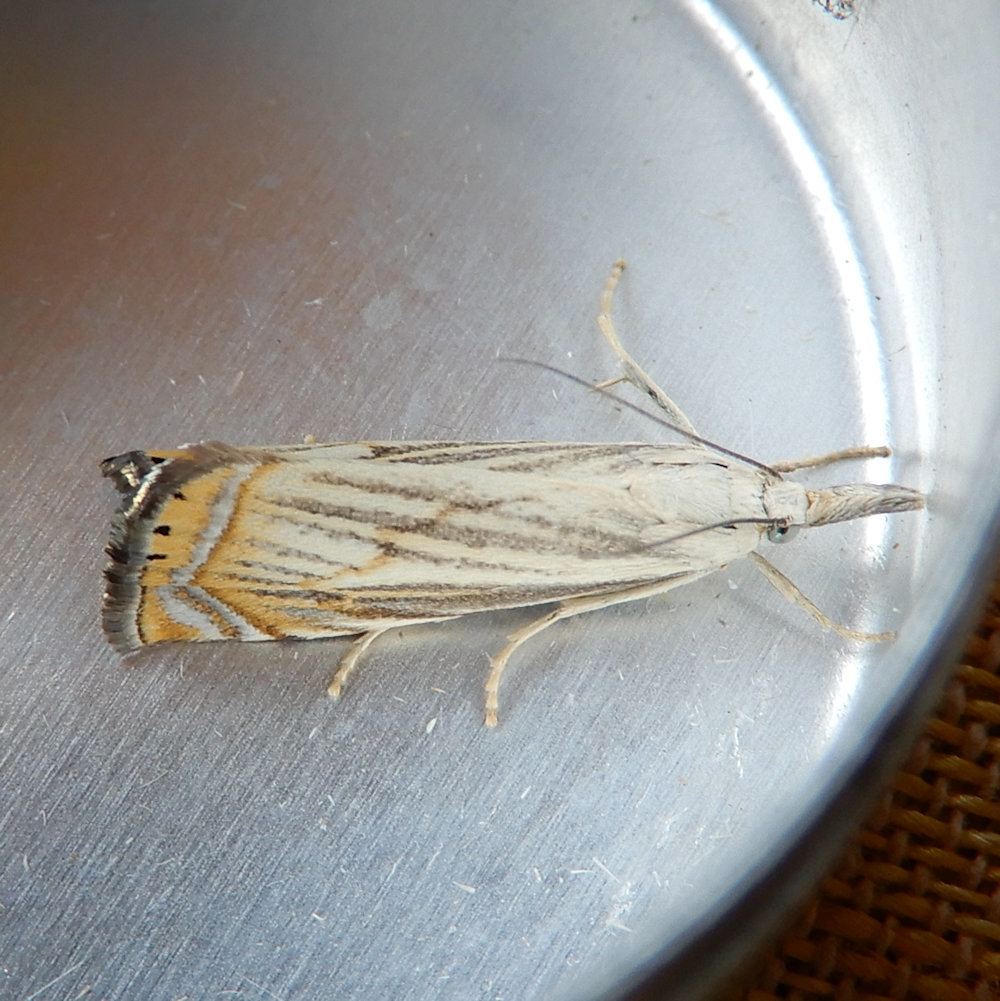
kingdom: Animalia
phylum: Arthropoda
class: Insecta
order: Lepidoptera
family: Crambidae
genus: Chrysoteuchia
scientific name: Chrysoteuchia topiarius
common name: Topiary grass-veneer
